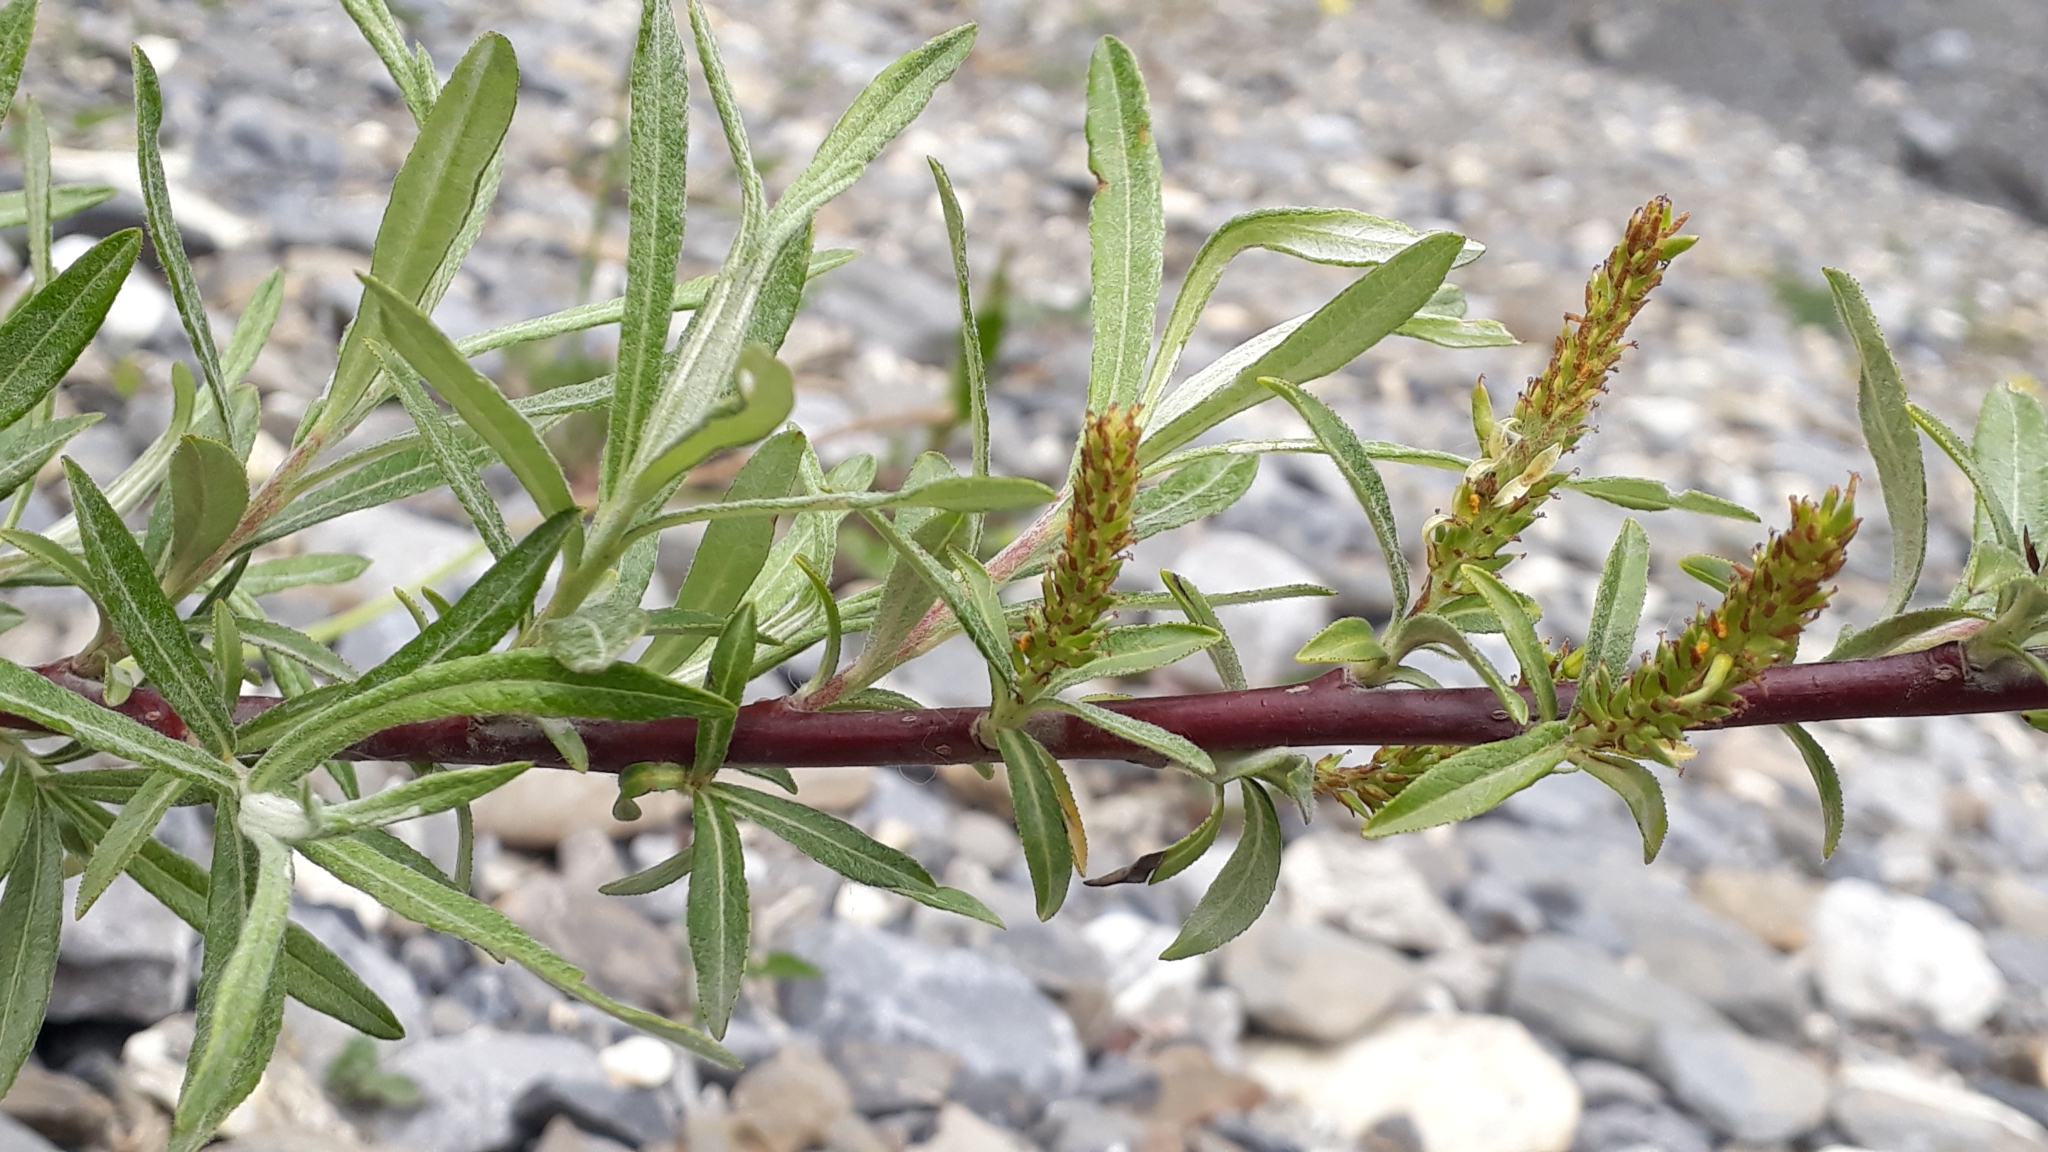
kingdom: Plantae
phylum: Tracheophyta
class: Magnoliopsida
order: Malpighiales
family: Salicaceae
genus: Salix
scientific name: Salix eleagnos
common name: Elaeagnus willow
